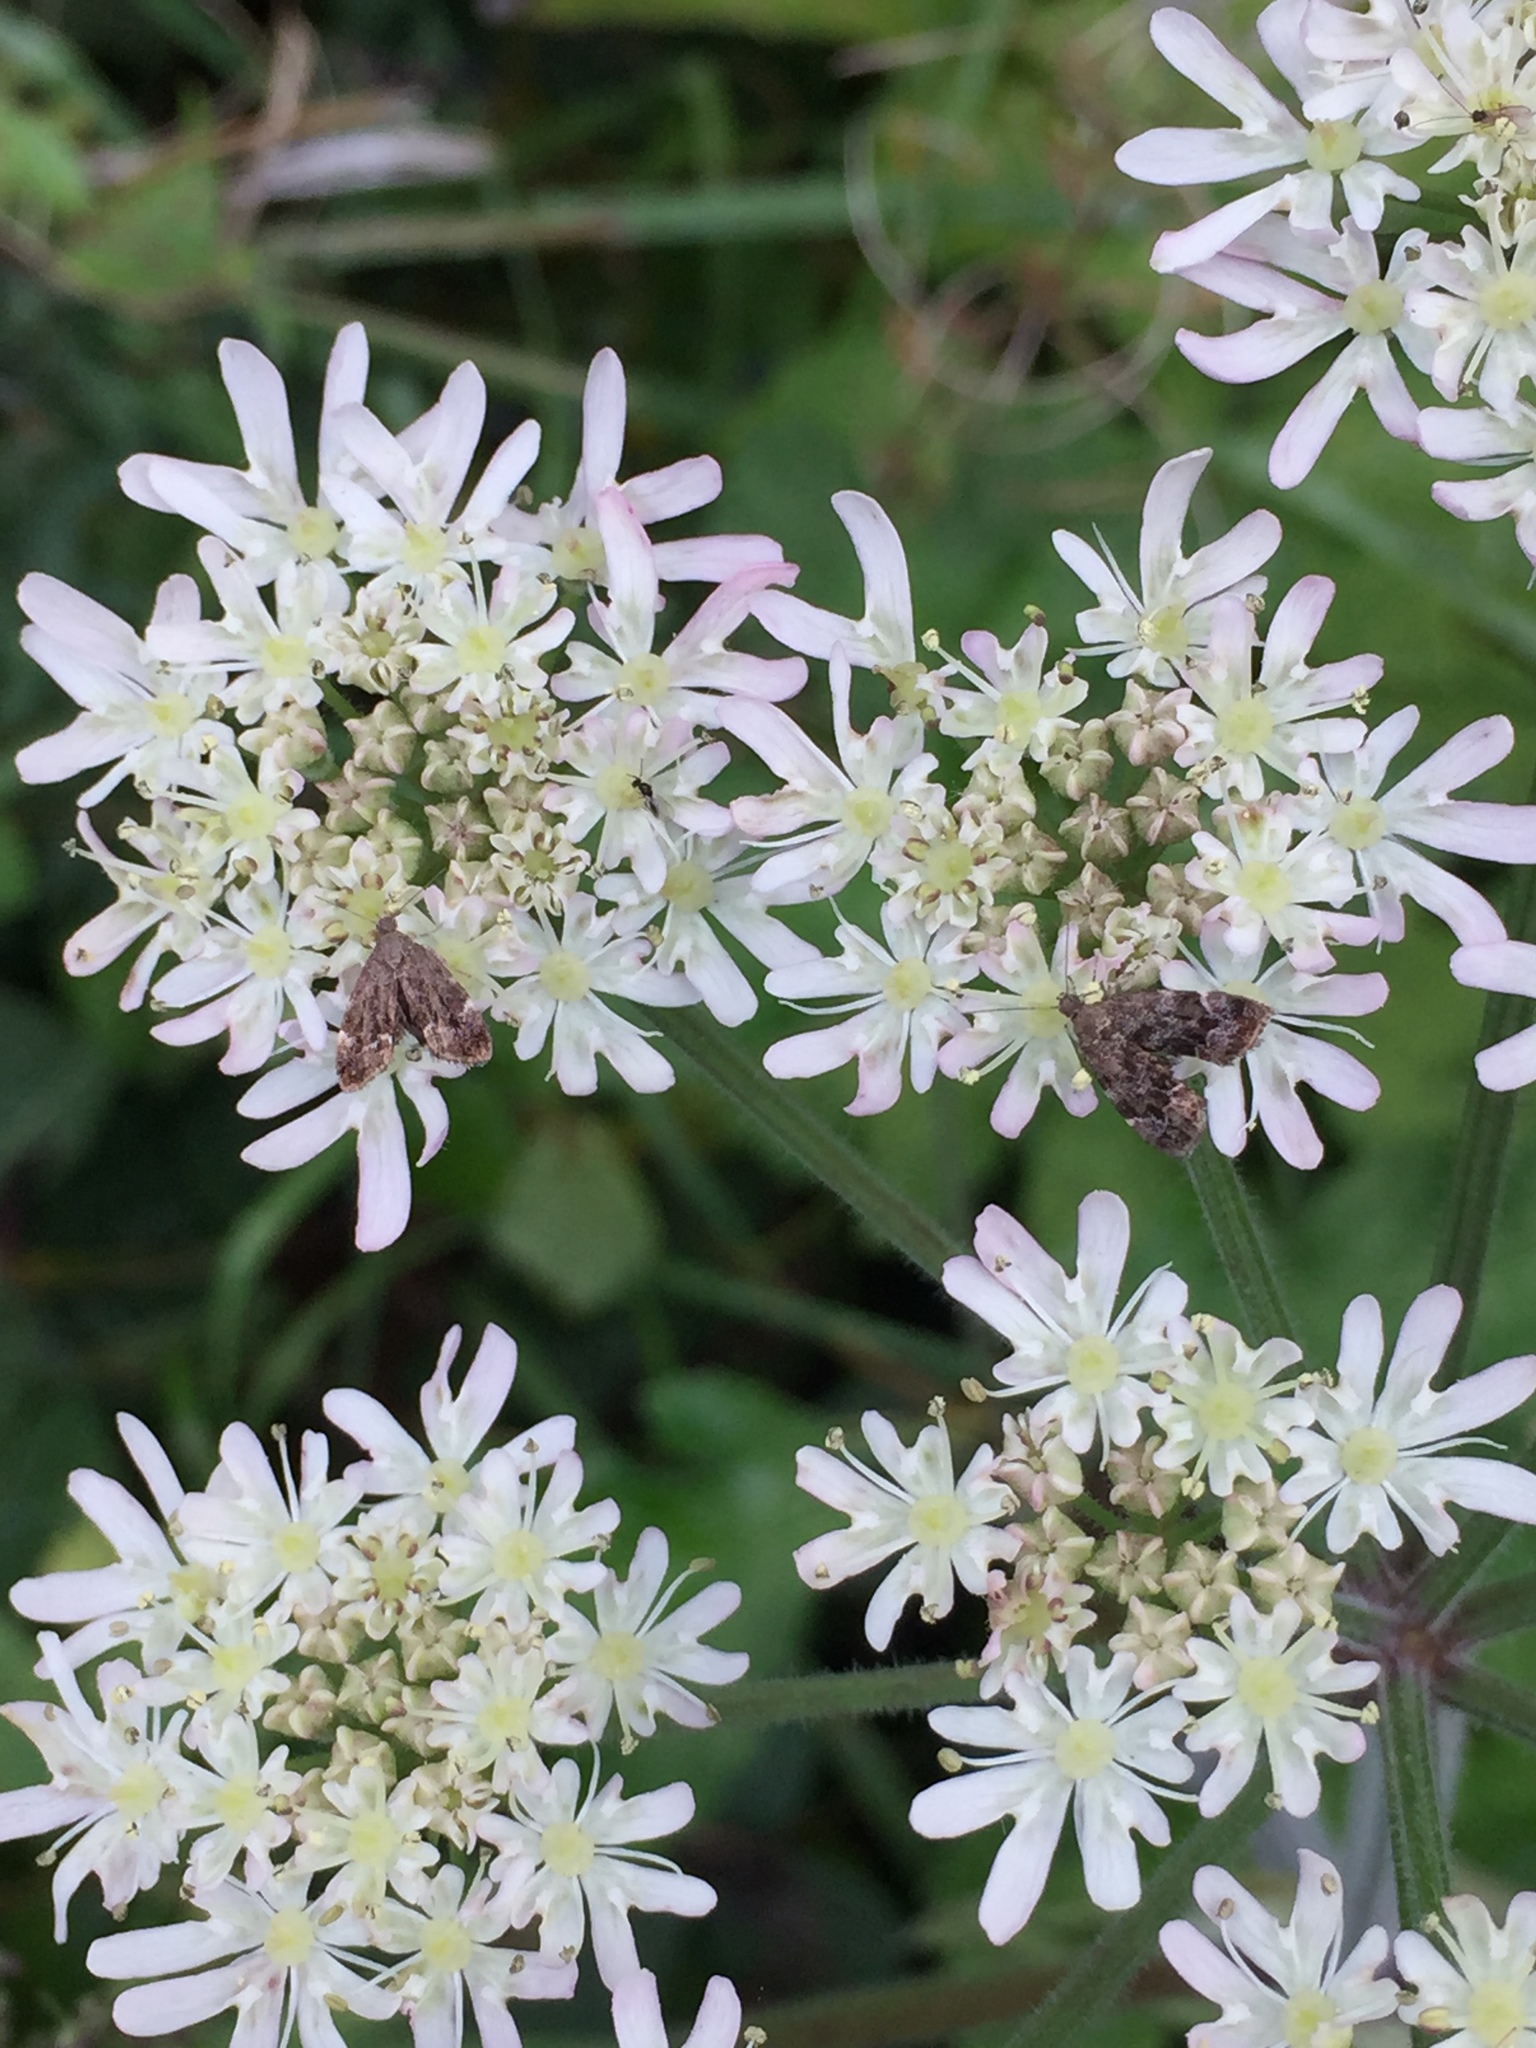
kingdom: Animalia
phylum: Arthropoda
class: Insecta
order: Lepidoptera
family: Choreutidae
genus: Anthophila
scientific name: Anthophila fabriciana
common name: Nettle-tap
